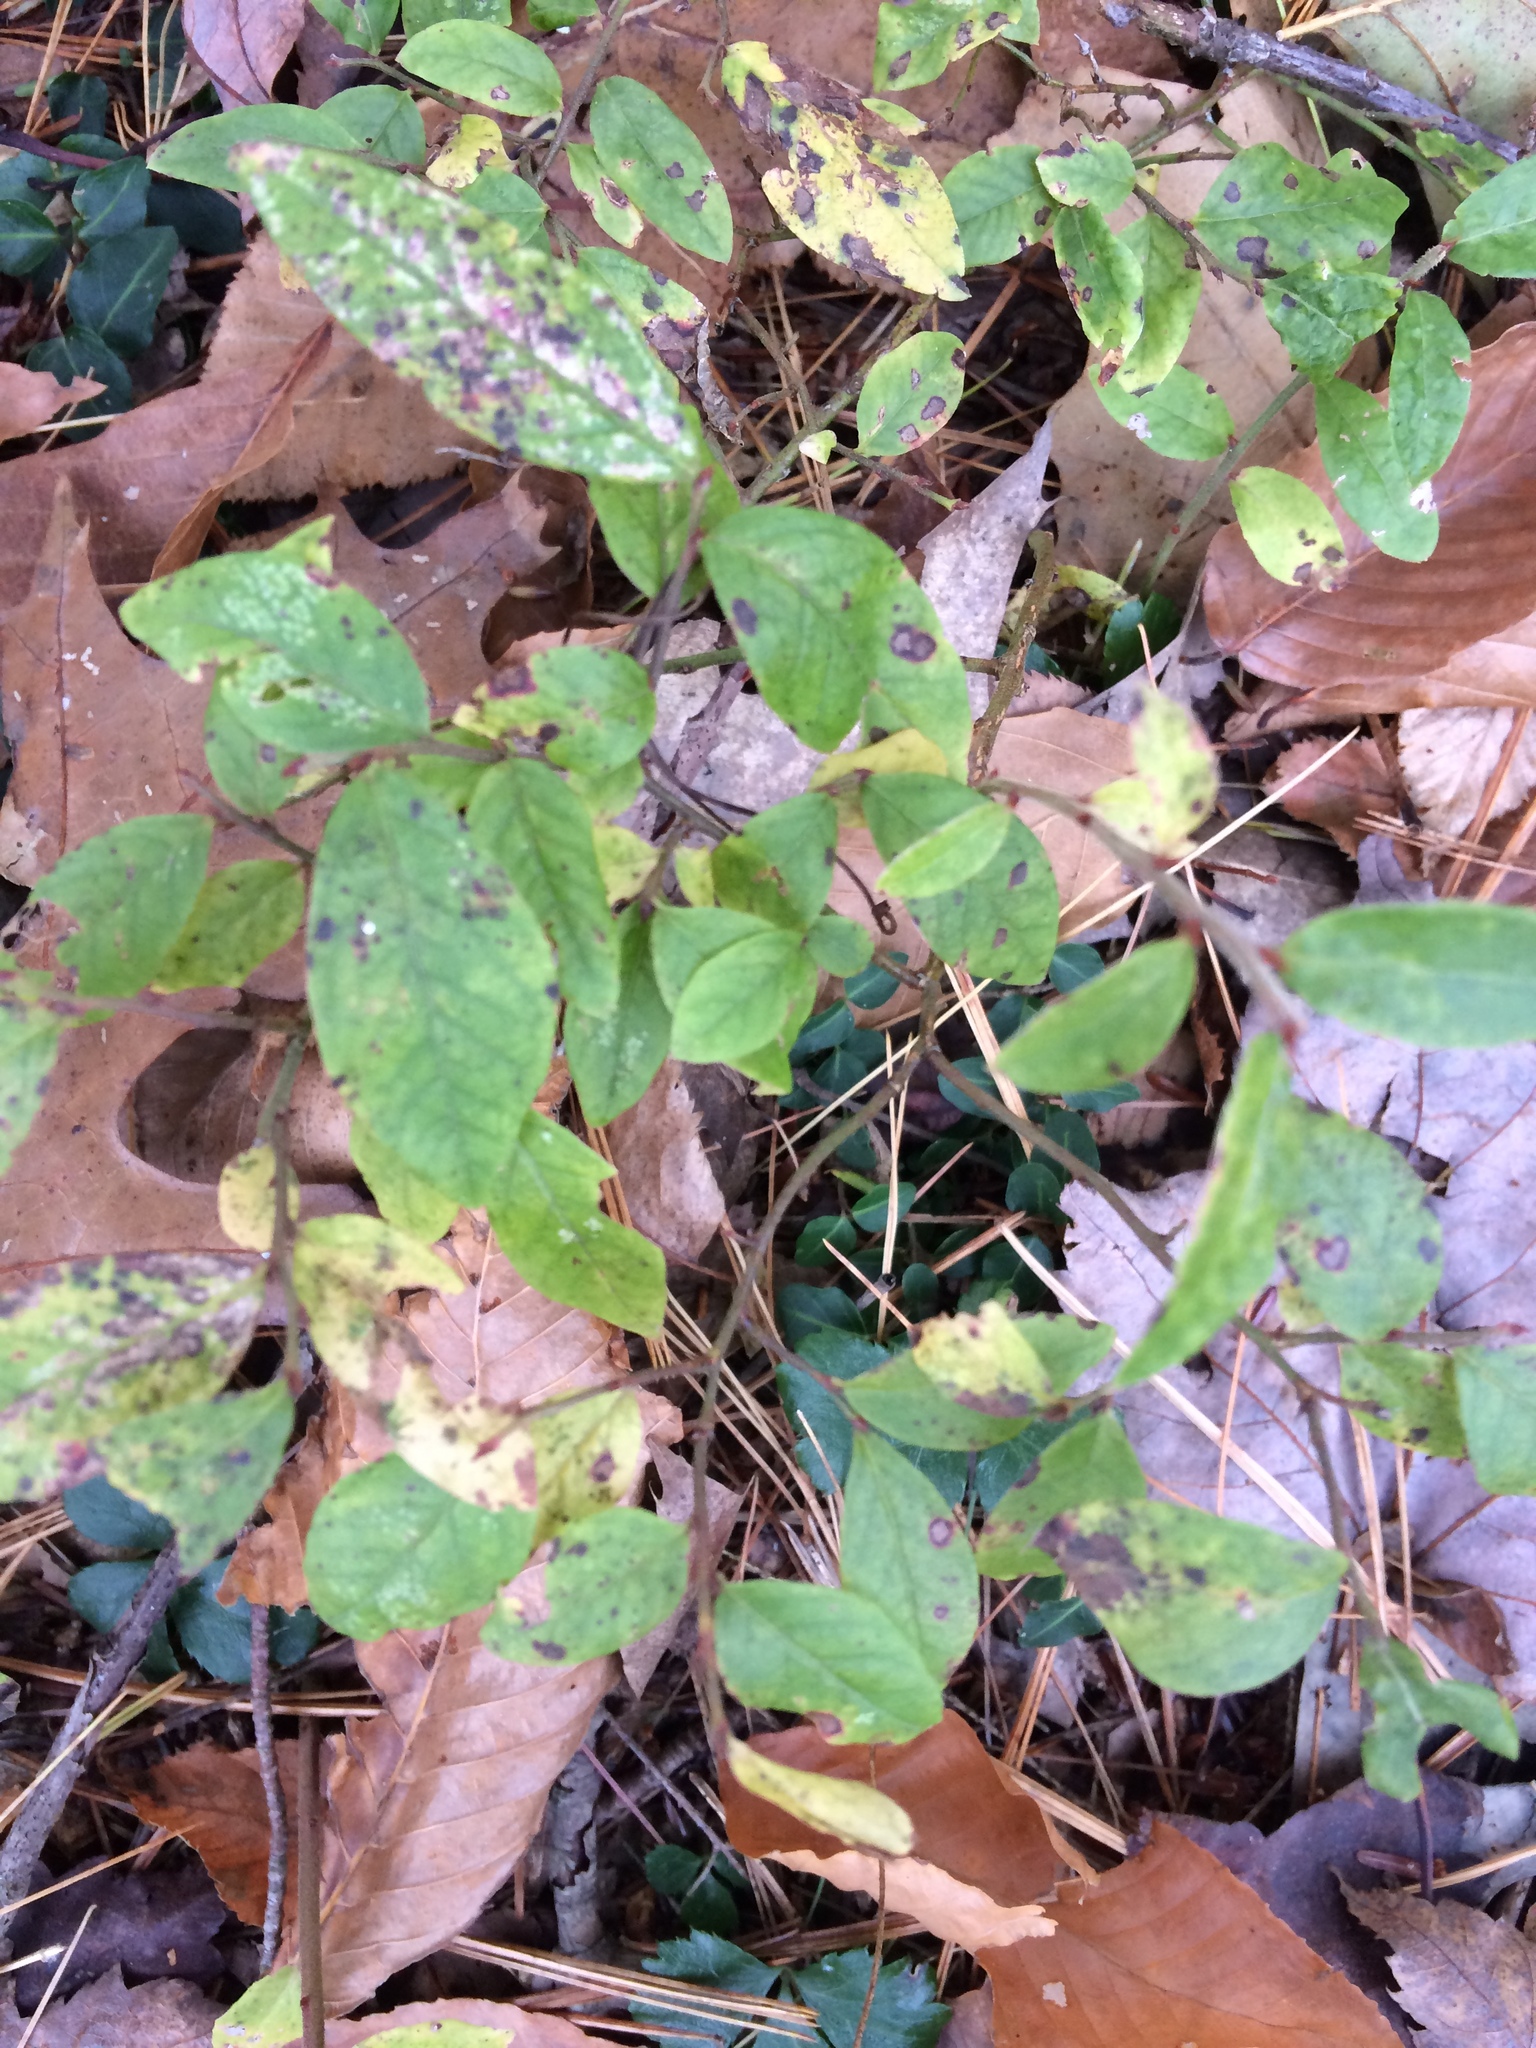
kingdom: Plantae
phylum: Tracheophyta
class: Magnoliopsida
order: Ericales
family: Ericaceae
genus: Vaccinium
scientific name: Vaccinium angustifolium
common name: Early lowbush blueberry
